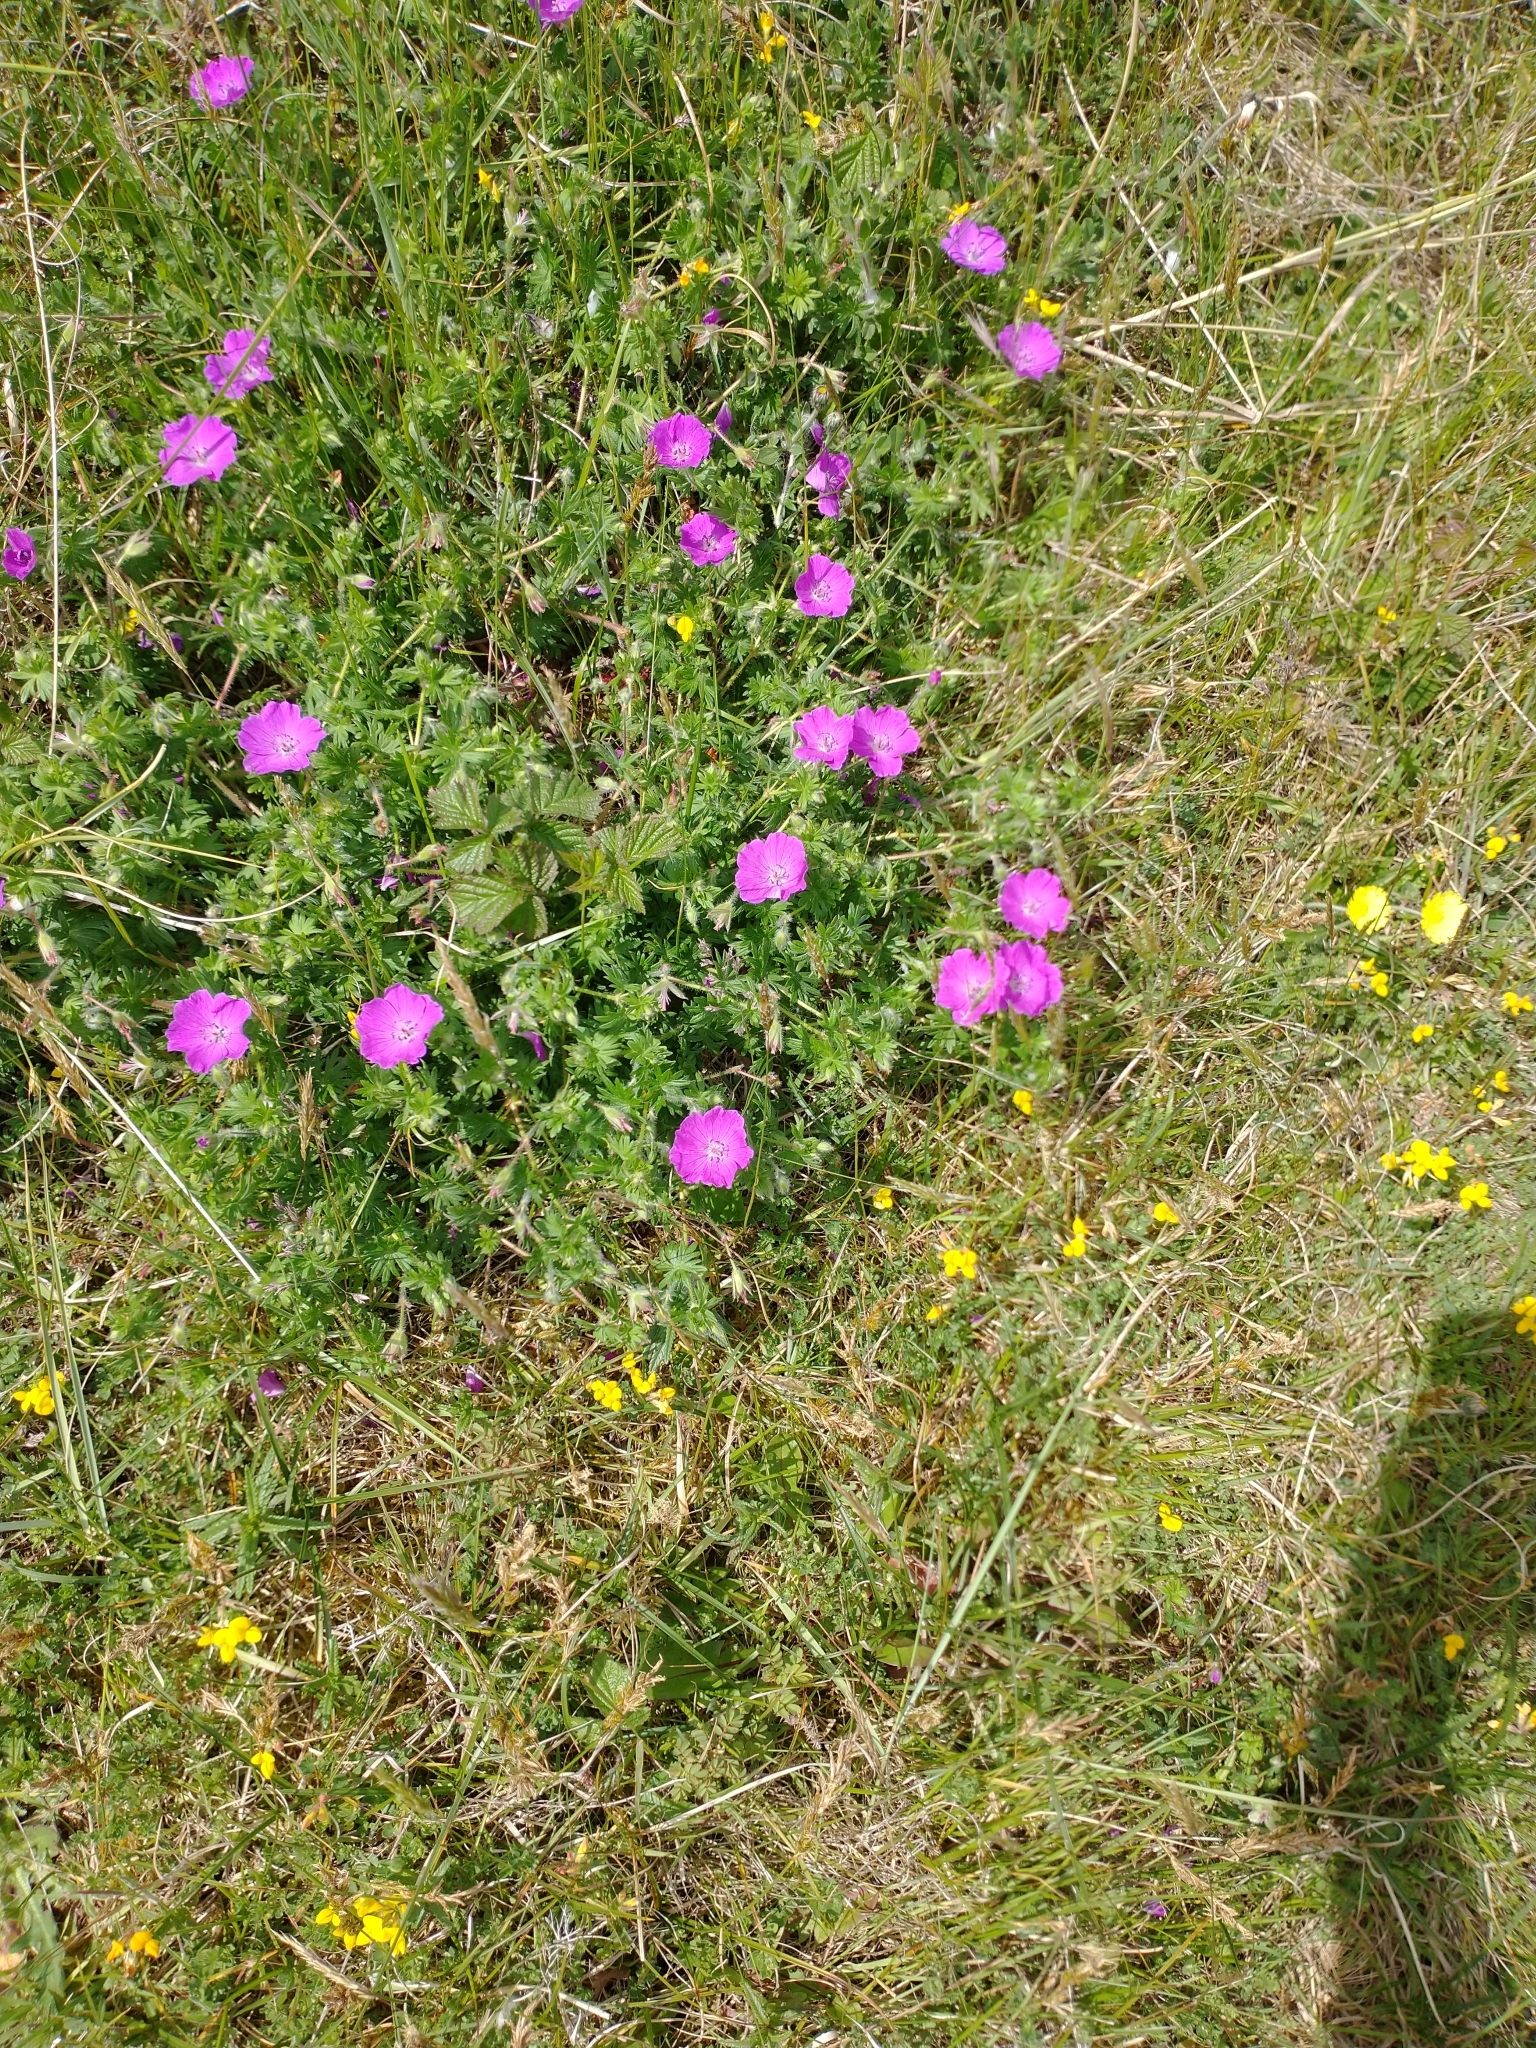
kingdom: Plantae
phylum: Tracheophyta
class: Magnoliopsida
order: Geraniales
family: Geraniaceae
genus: Geranium
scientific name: Geranium sanguineum
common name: Bloody crane's-bill
